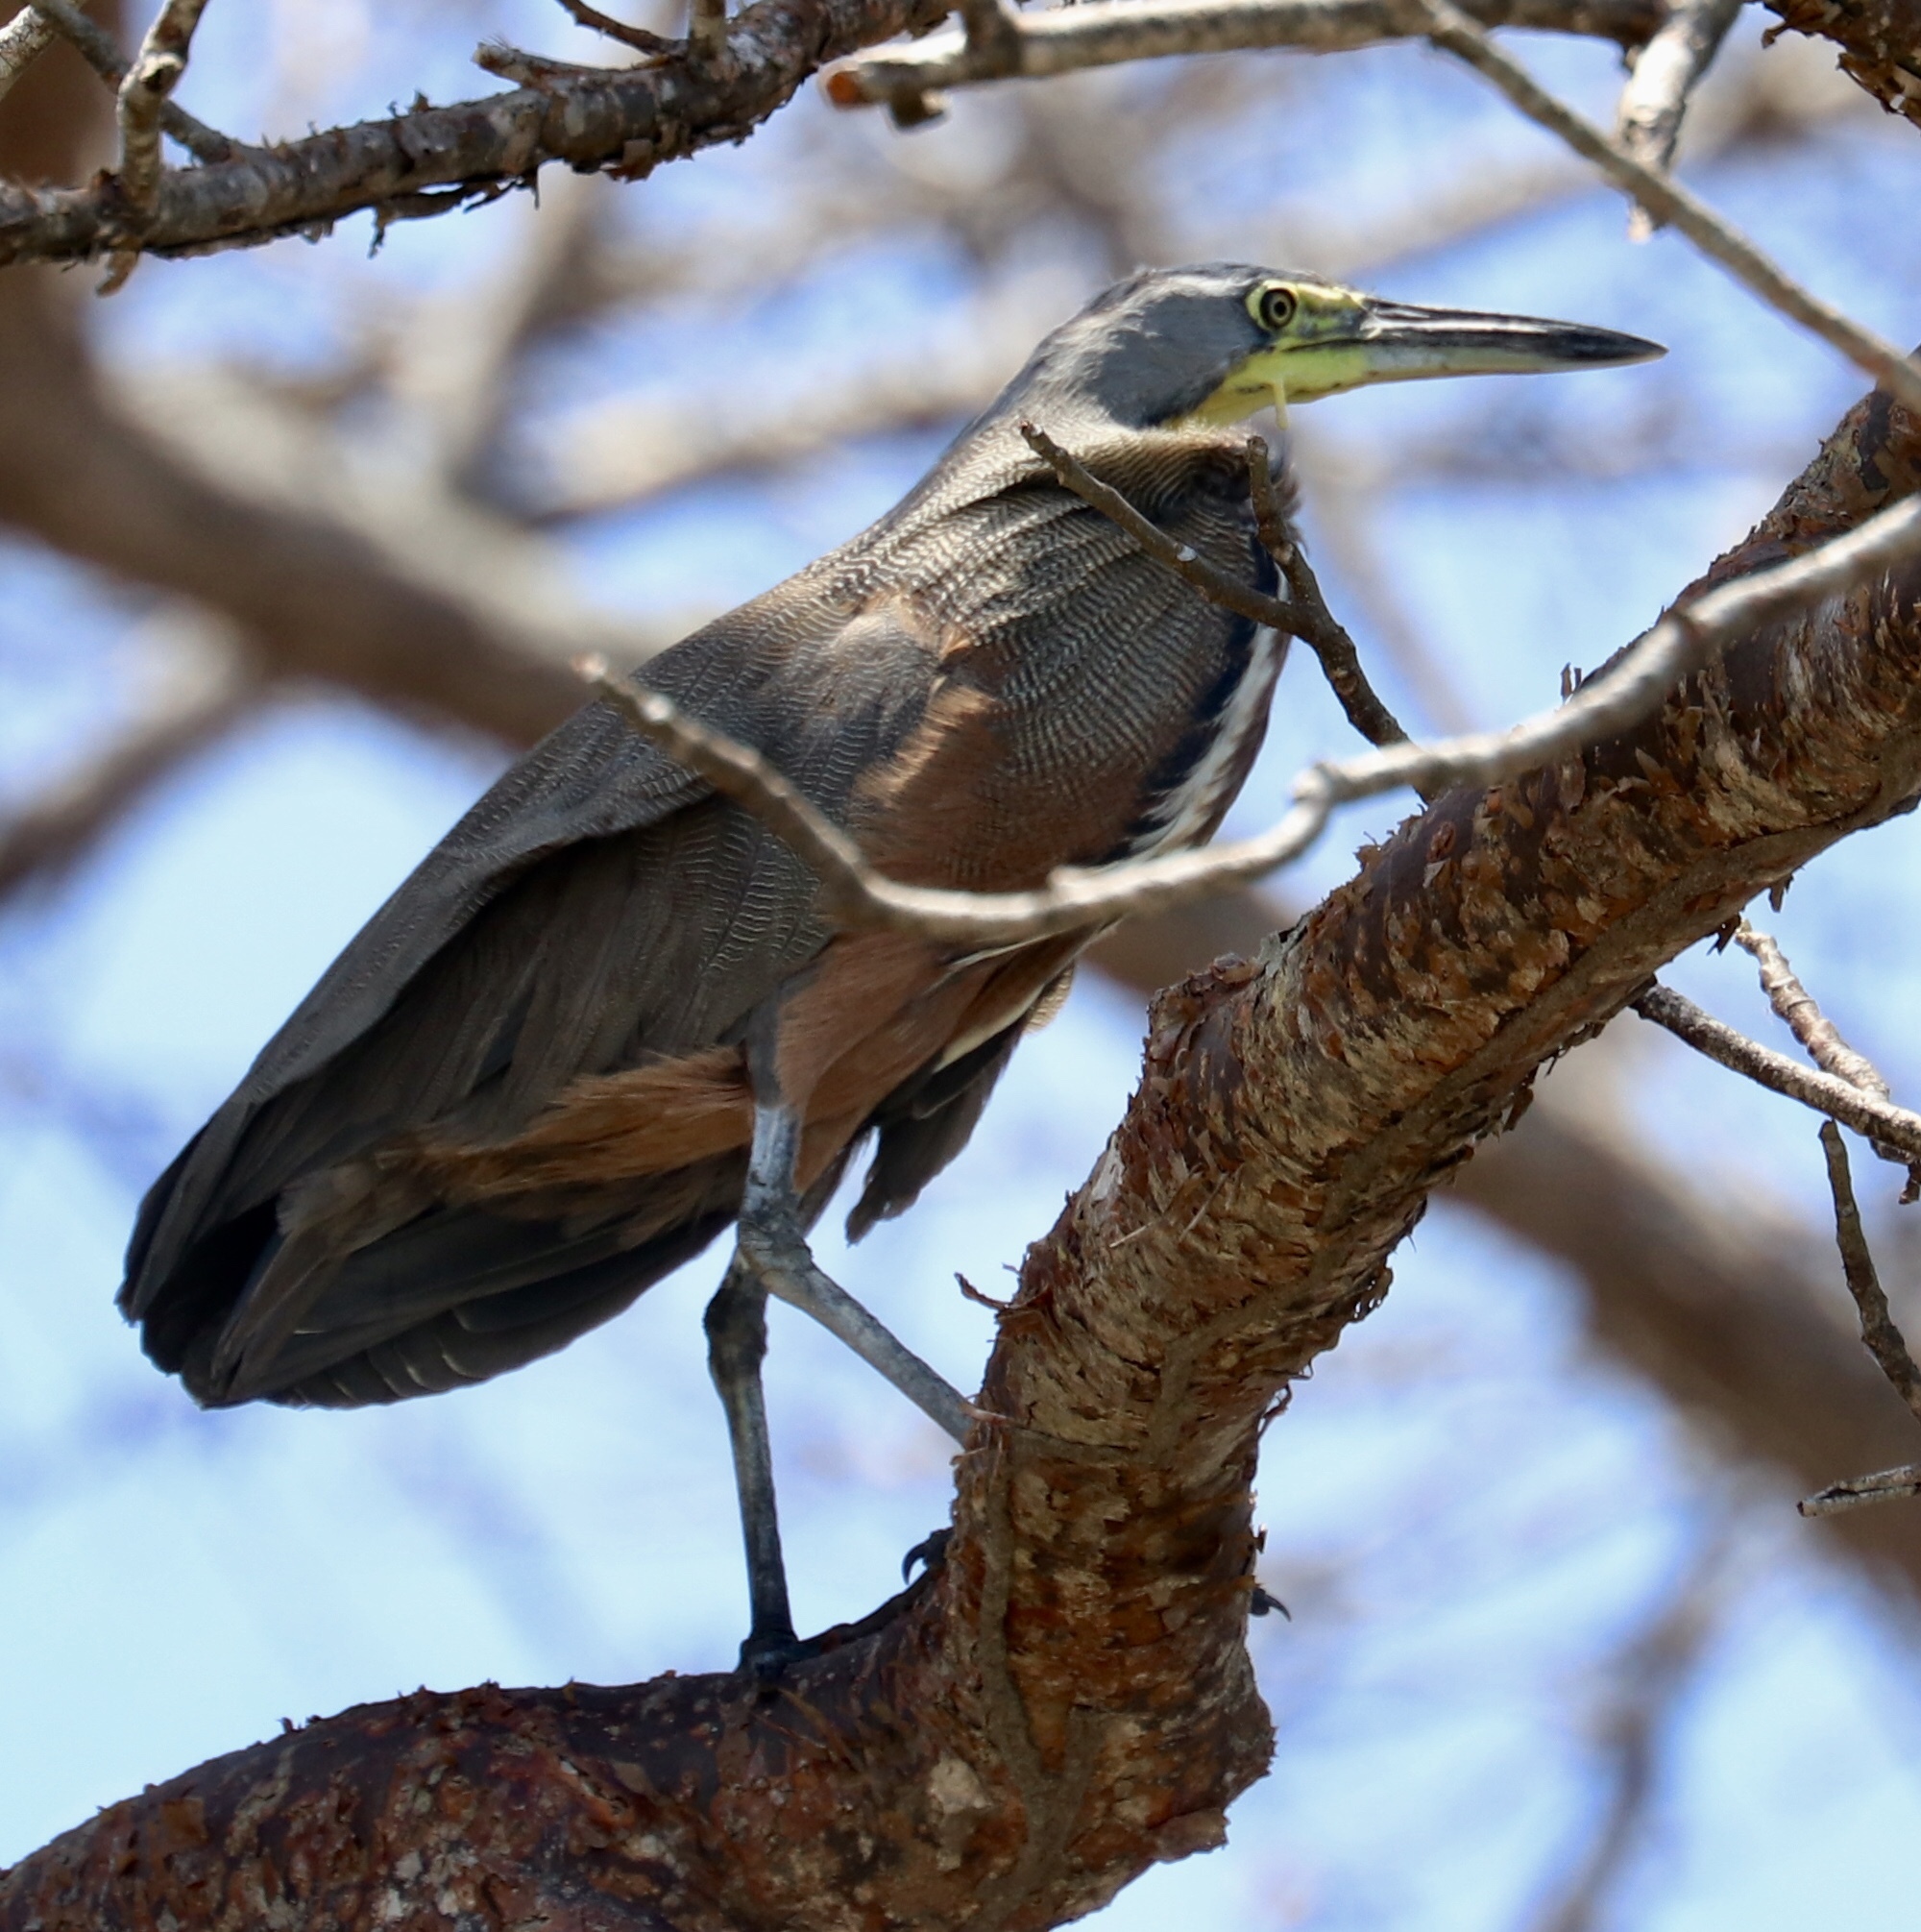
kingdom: Animalia
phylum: Chordata
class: Aves
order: Pelecaniformes
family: Ardeidae
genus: Tigrisoma
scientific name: Tigrisoma mexicanum
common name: Bare-throated tiger-heron
